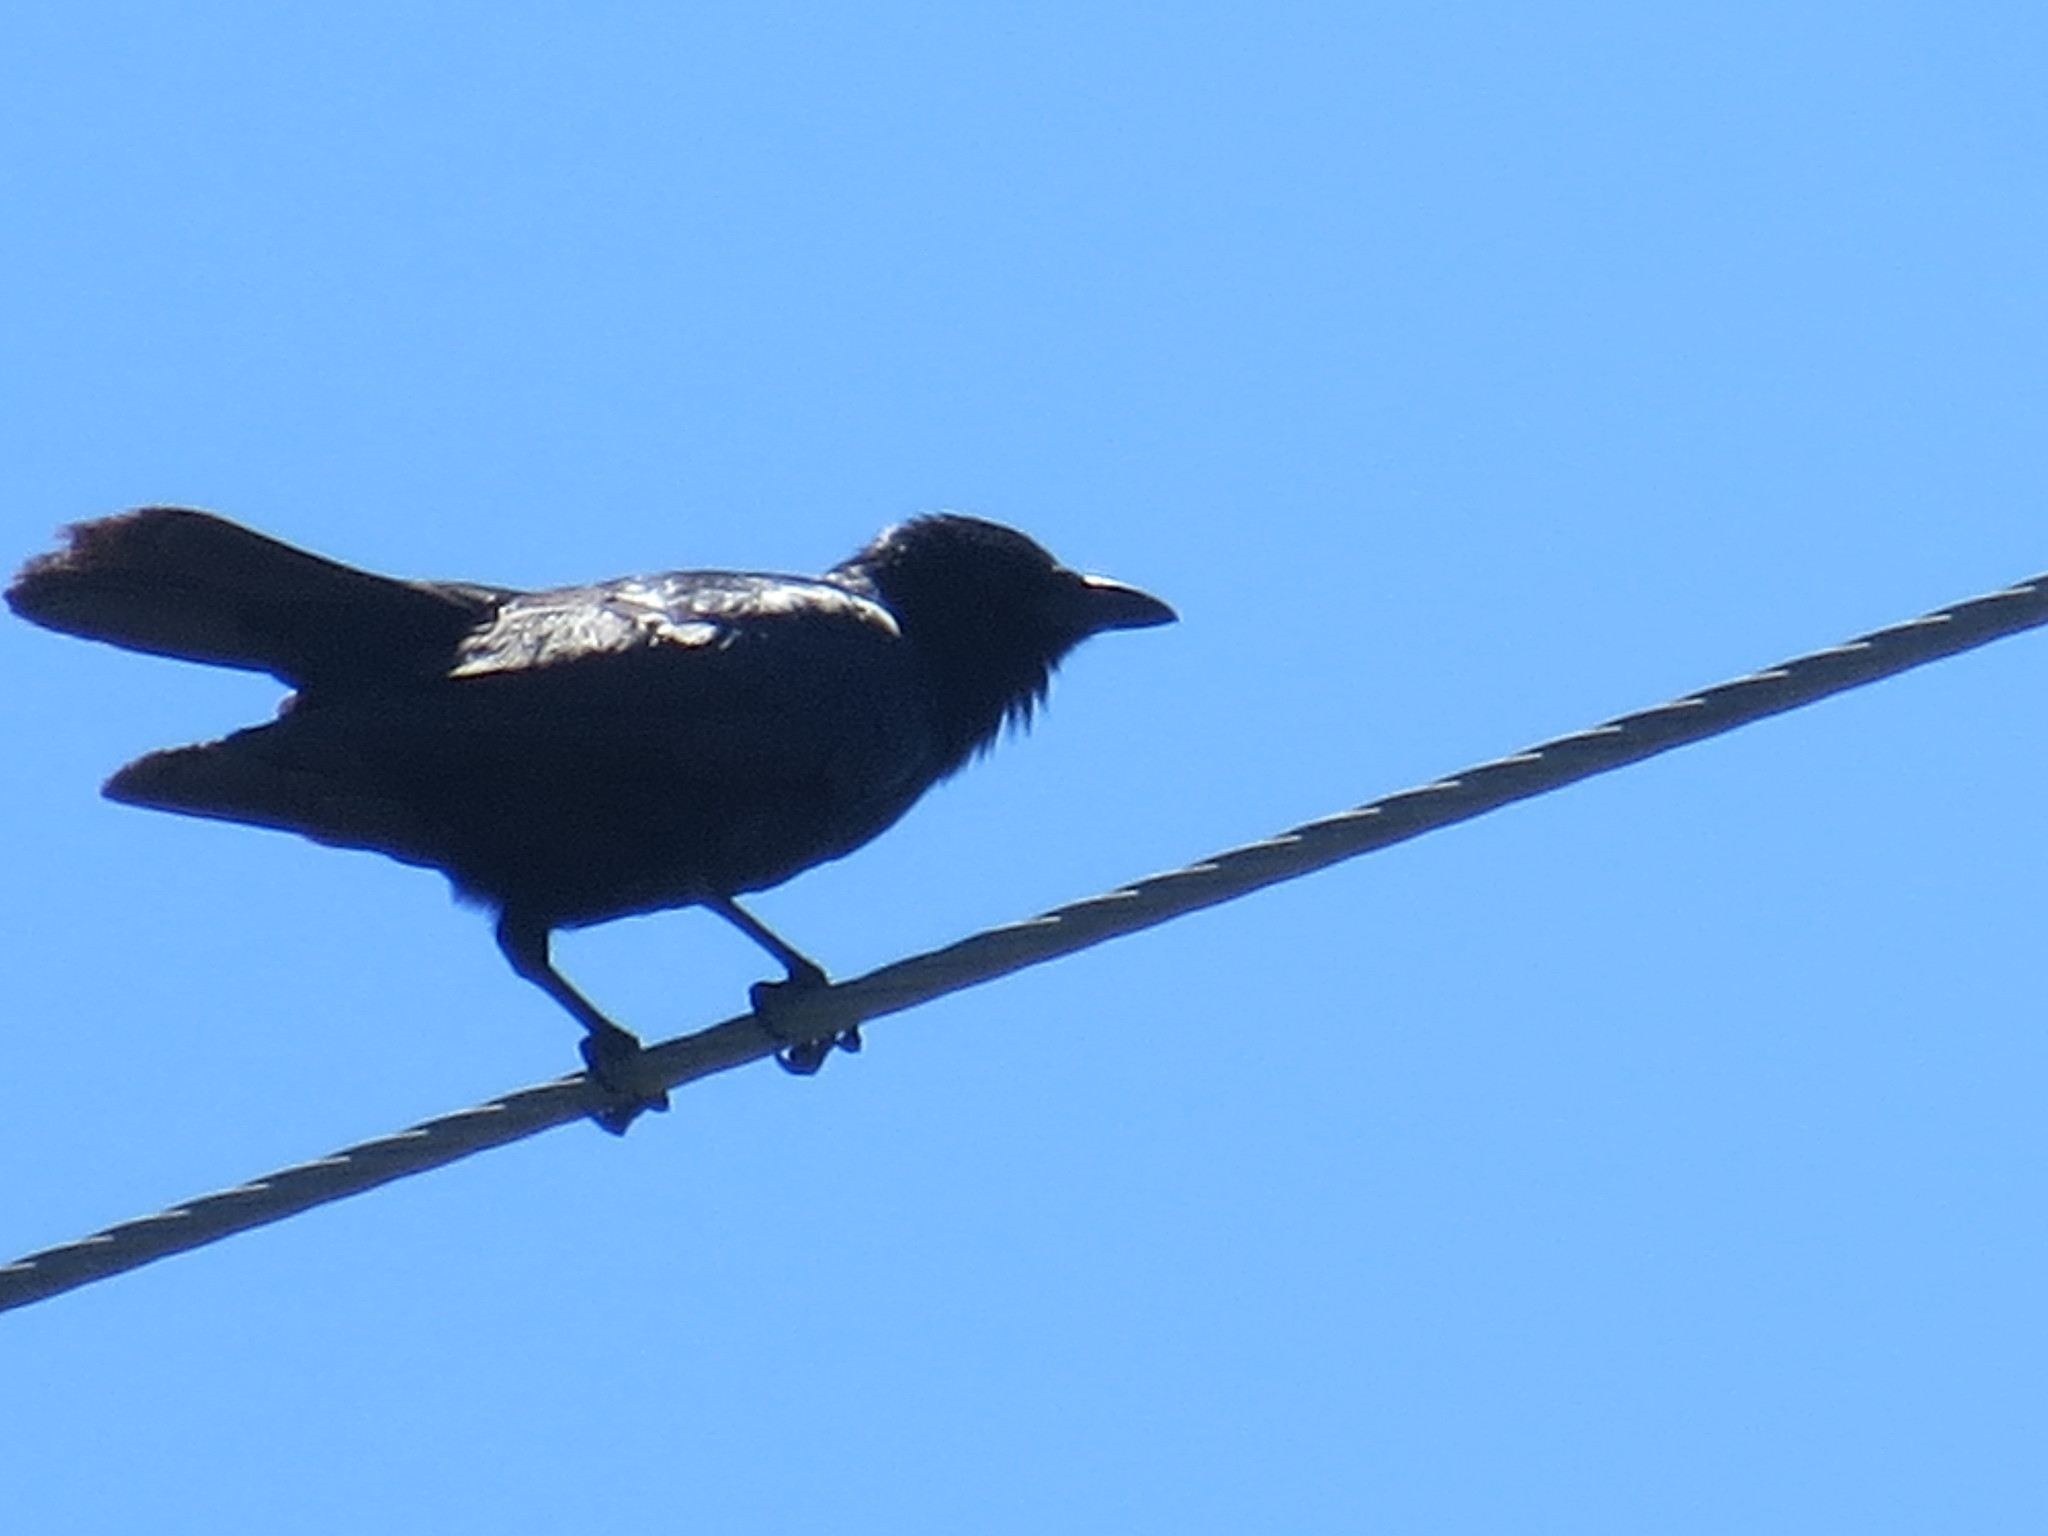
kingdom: Animalia
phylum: Chordata
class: Aves
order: Passeriformes
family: Corvidae
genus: Corvus
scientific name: Corvus ossifragus
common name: Fish crow
